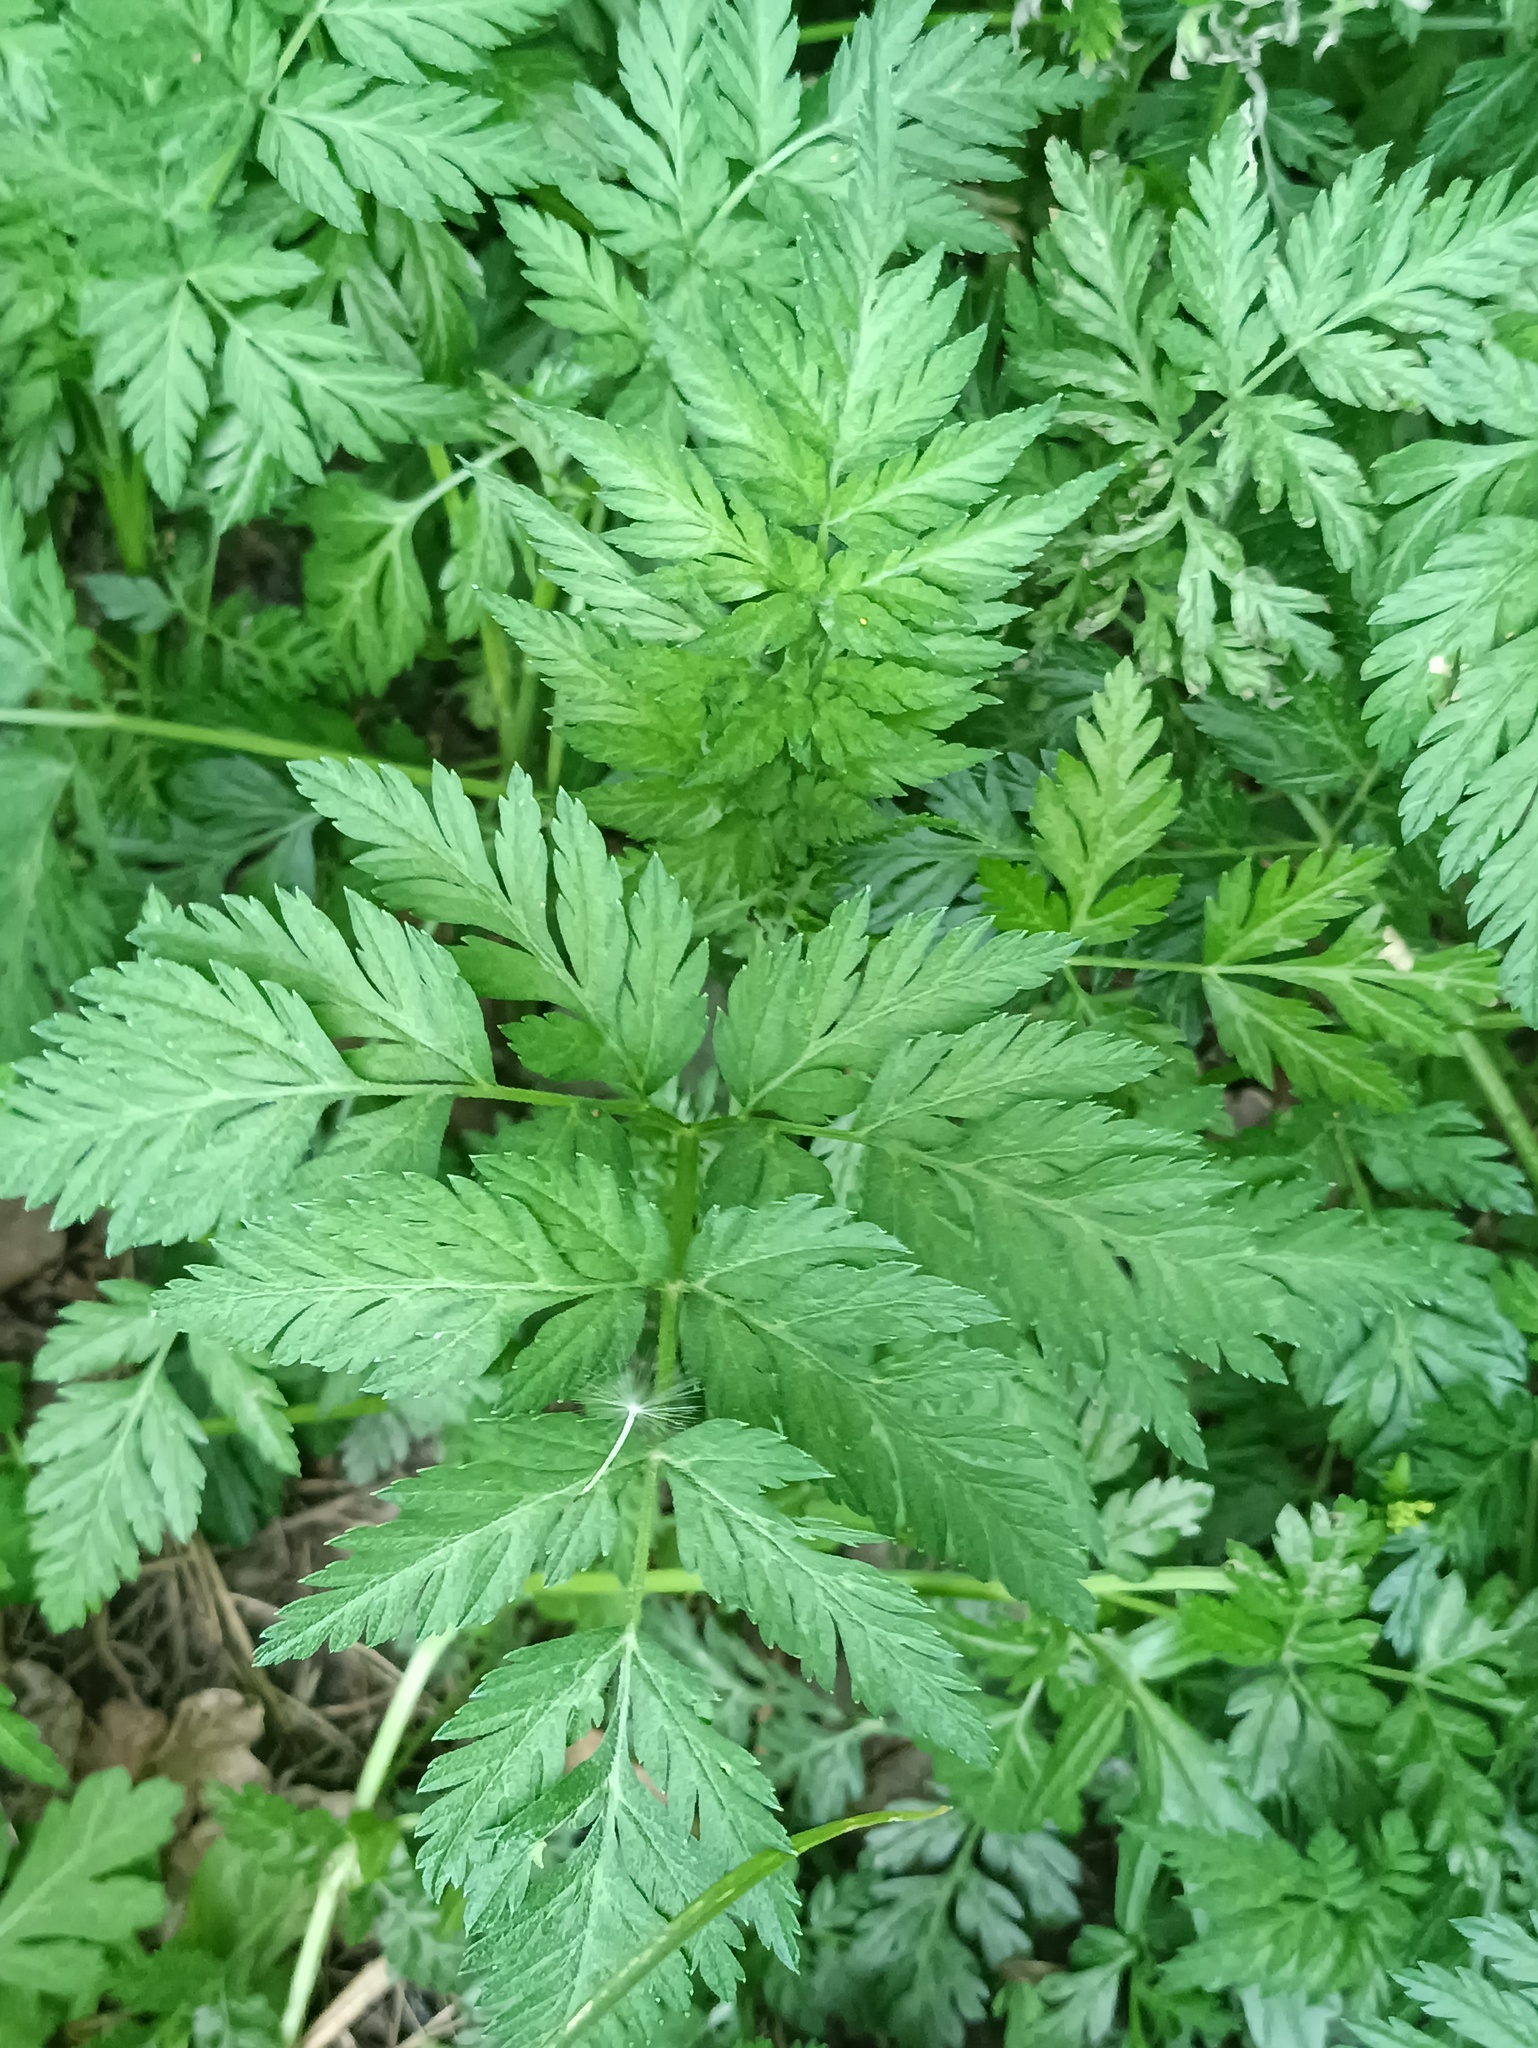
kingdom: Plantae
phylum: Tracheophyta
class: Magnoliopsida
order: Apiales
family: Apiaceae
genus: Anthriscus
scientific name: Anthriscus sylvestris
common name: Cow parsley
